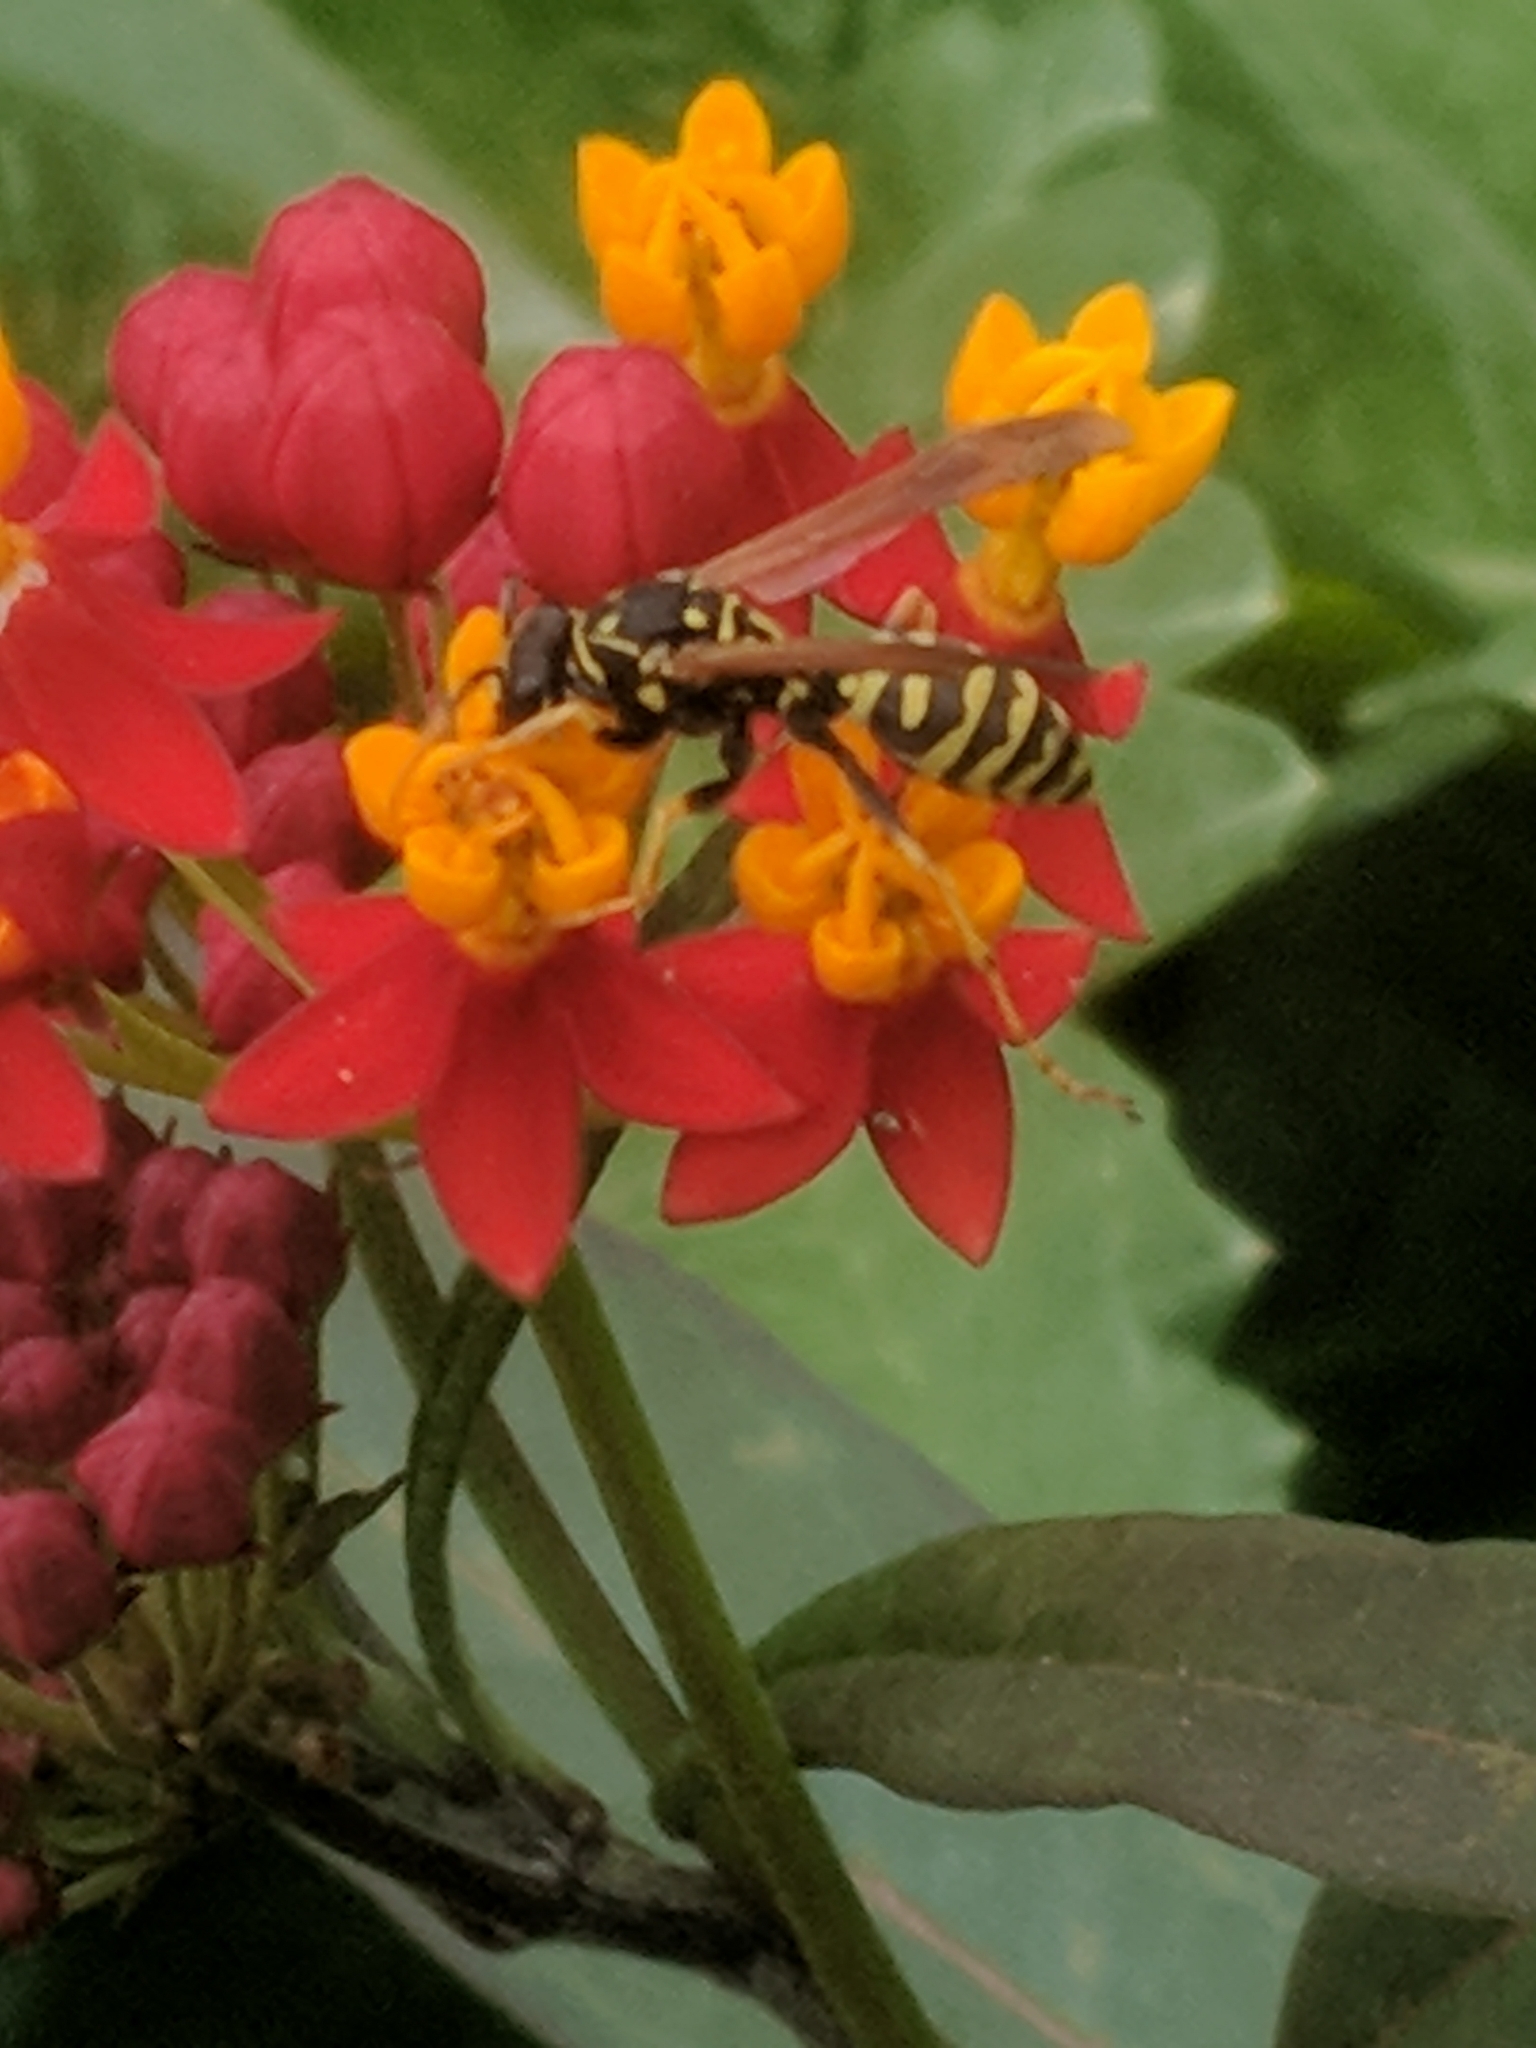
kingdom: Animalia
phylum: Arthropoda
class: Insecta
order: Hymenoptera
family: Eumenidae
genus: Polistes
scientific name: Polistes dominula
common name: Paper wasp
